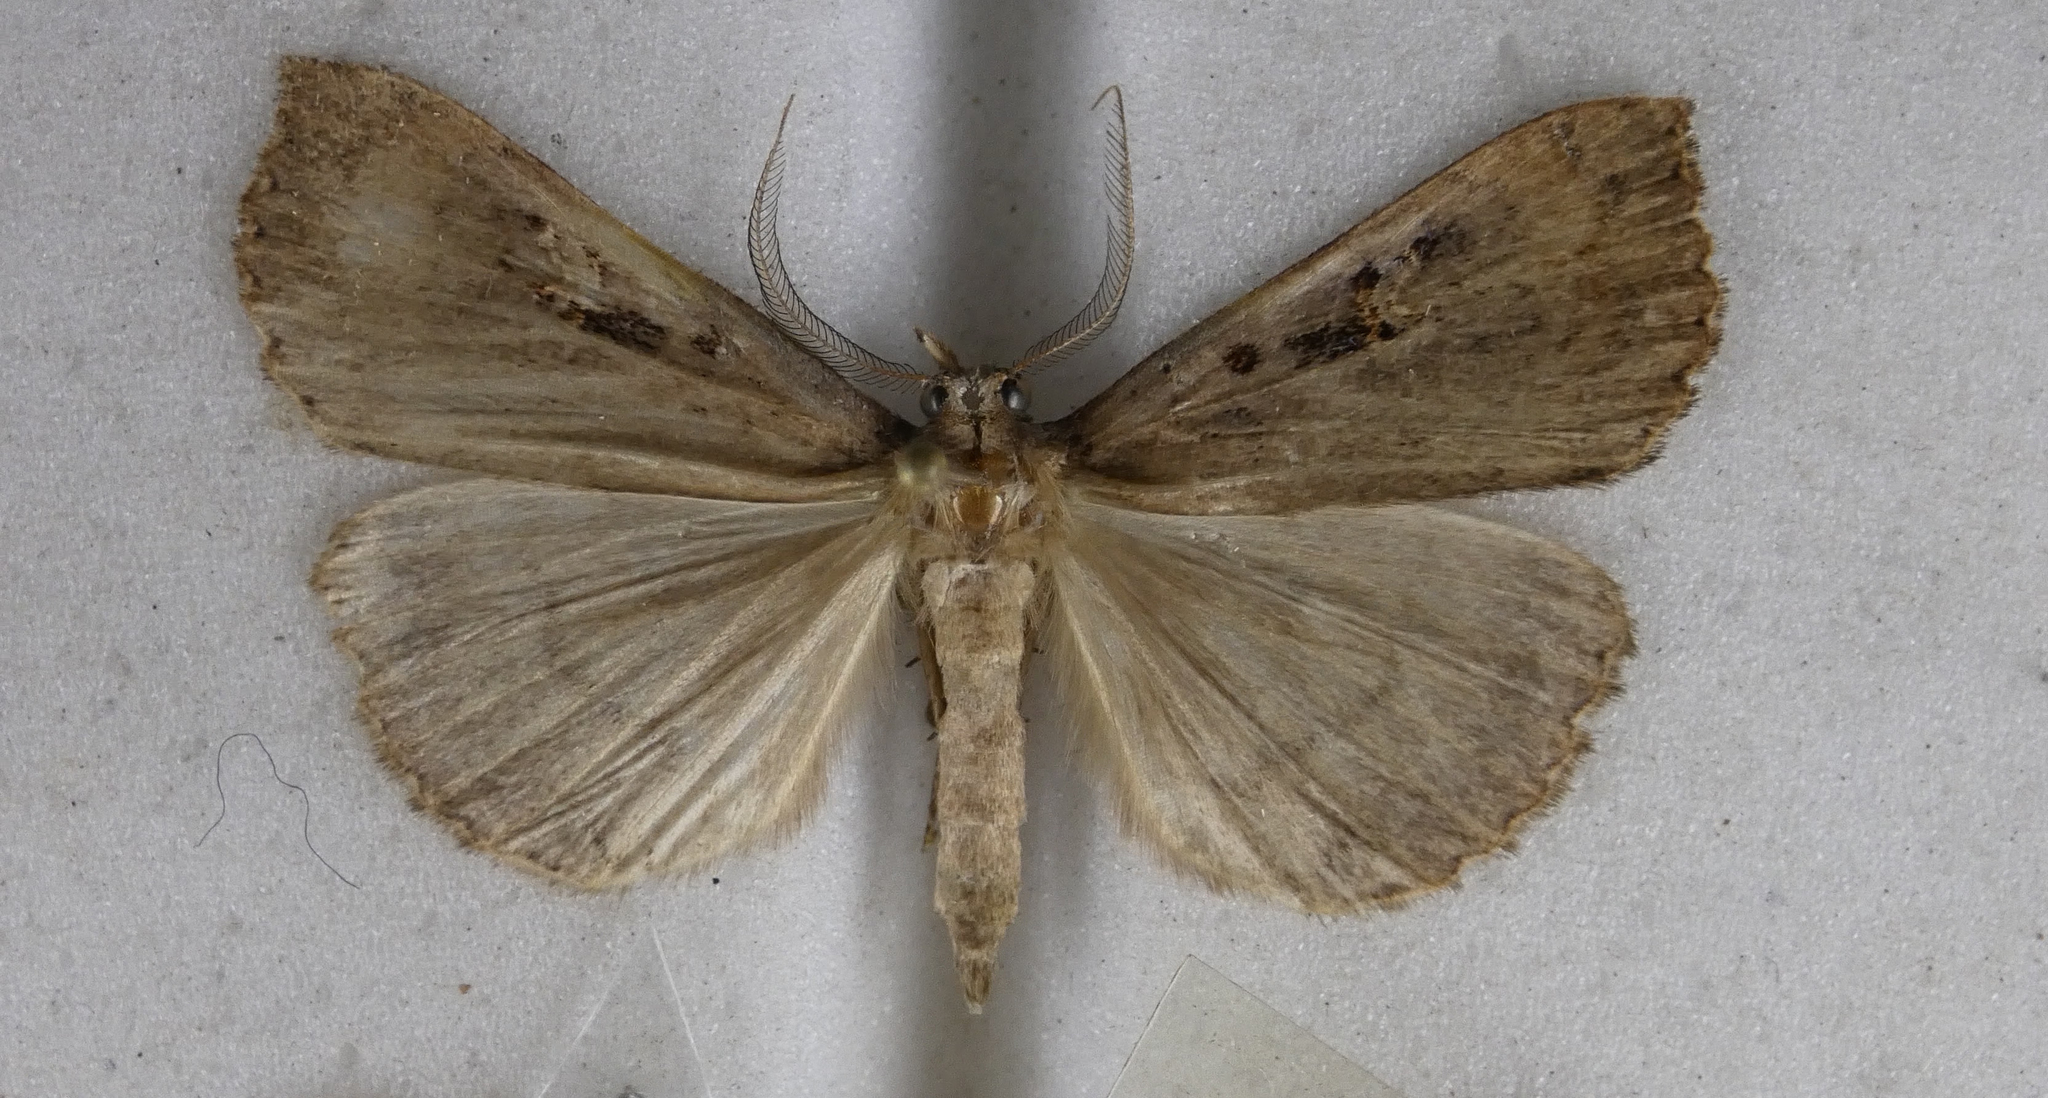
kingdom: Animalia
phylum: Arthropoda
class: Insecta
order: Lepidoptera
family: Erebidae
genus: Rhapsa
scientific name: Rhapsa scotosialis
